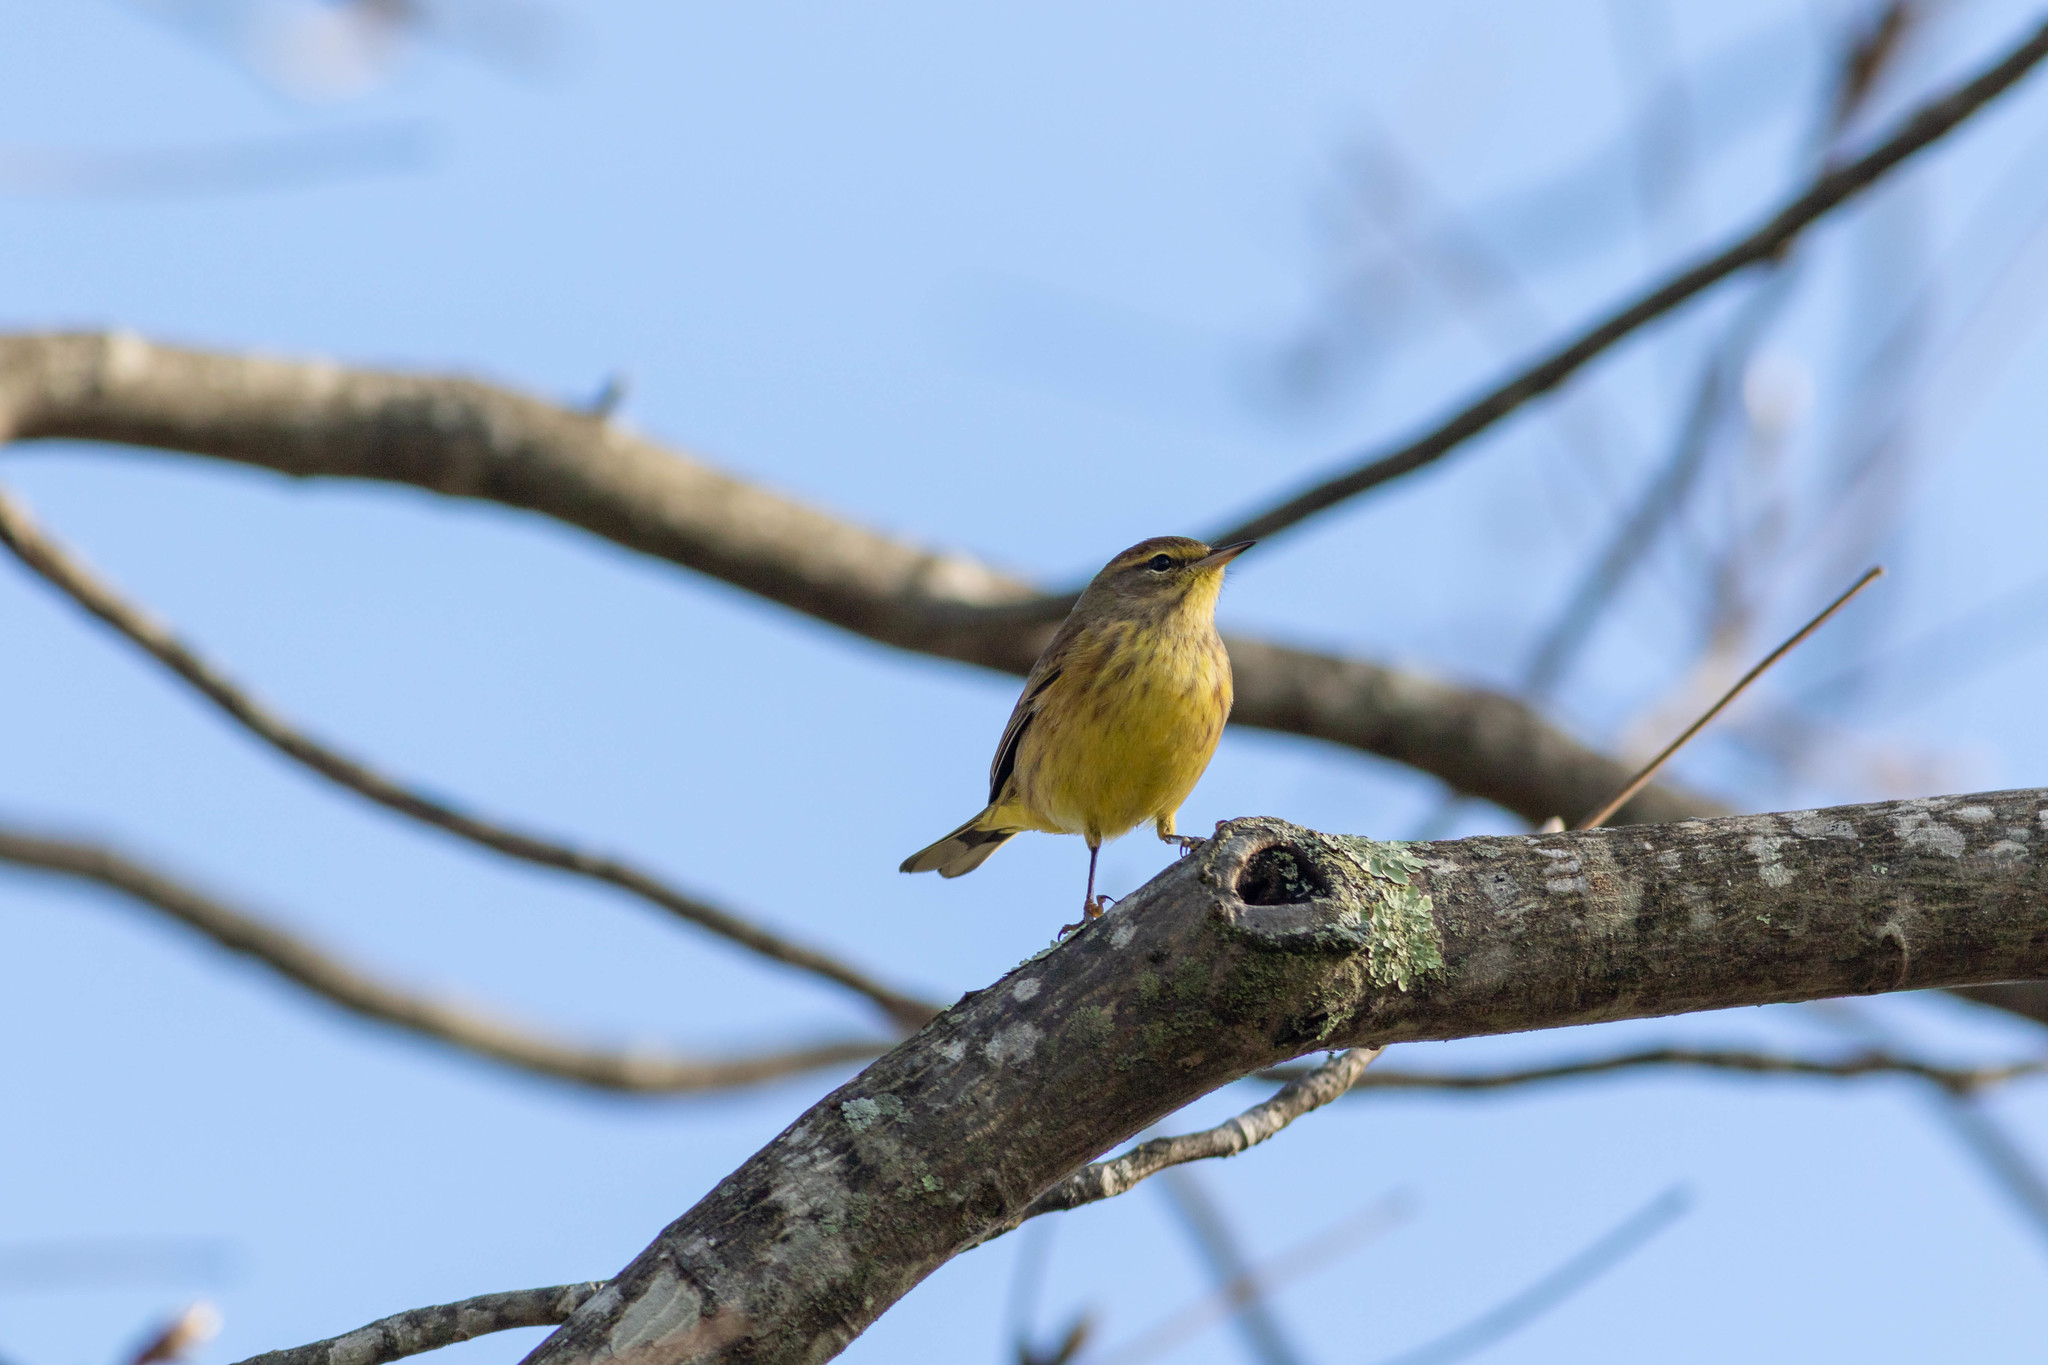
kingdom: Animalia
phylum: Chordata
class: Aves
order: Passeriformes
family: Parulidae
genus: Setophaga
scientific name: Setophaga palmarum
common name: Palm warbler
